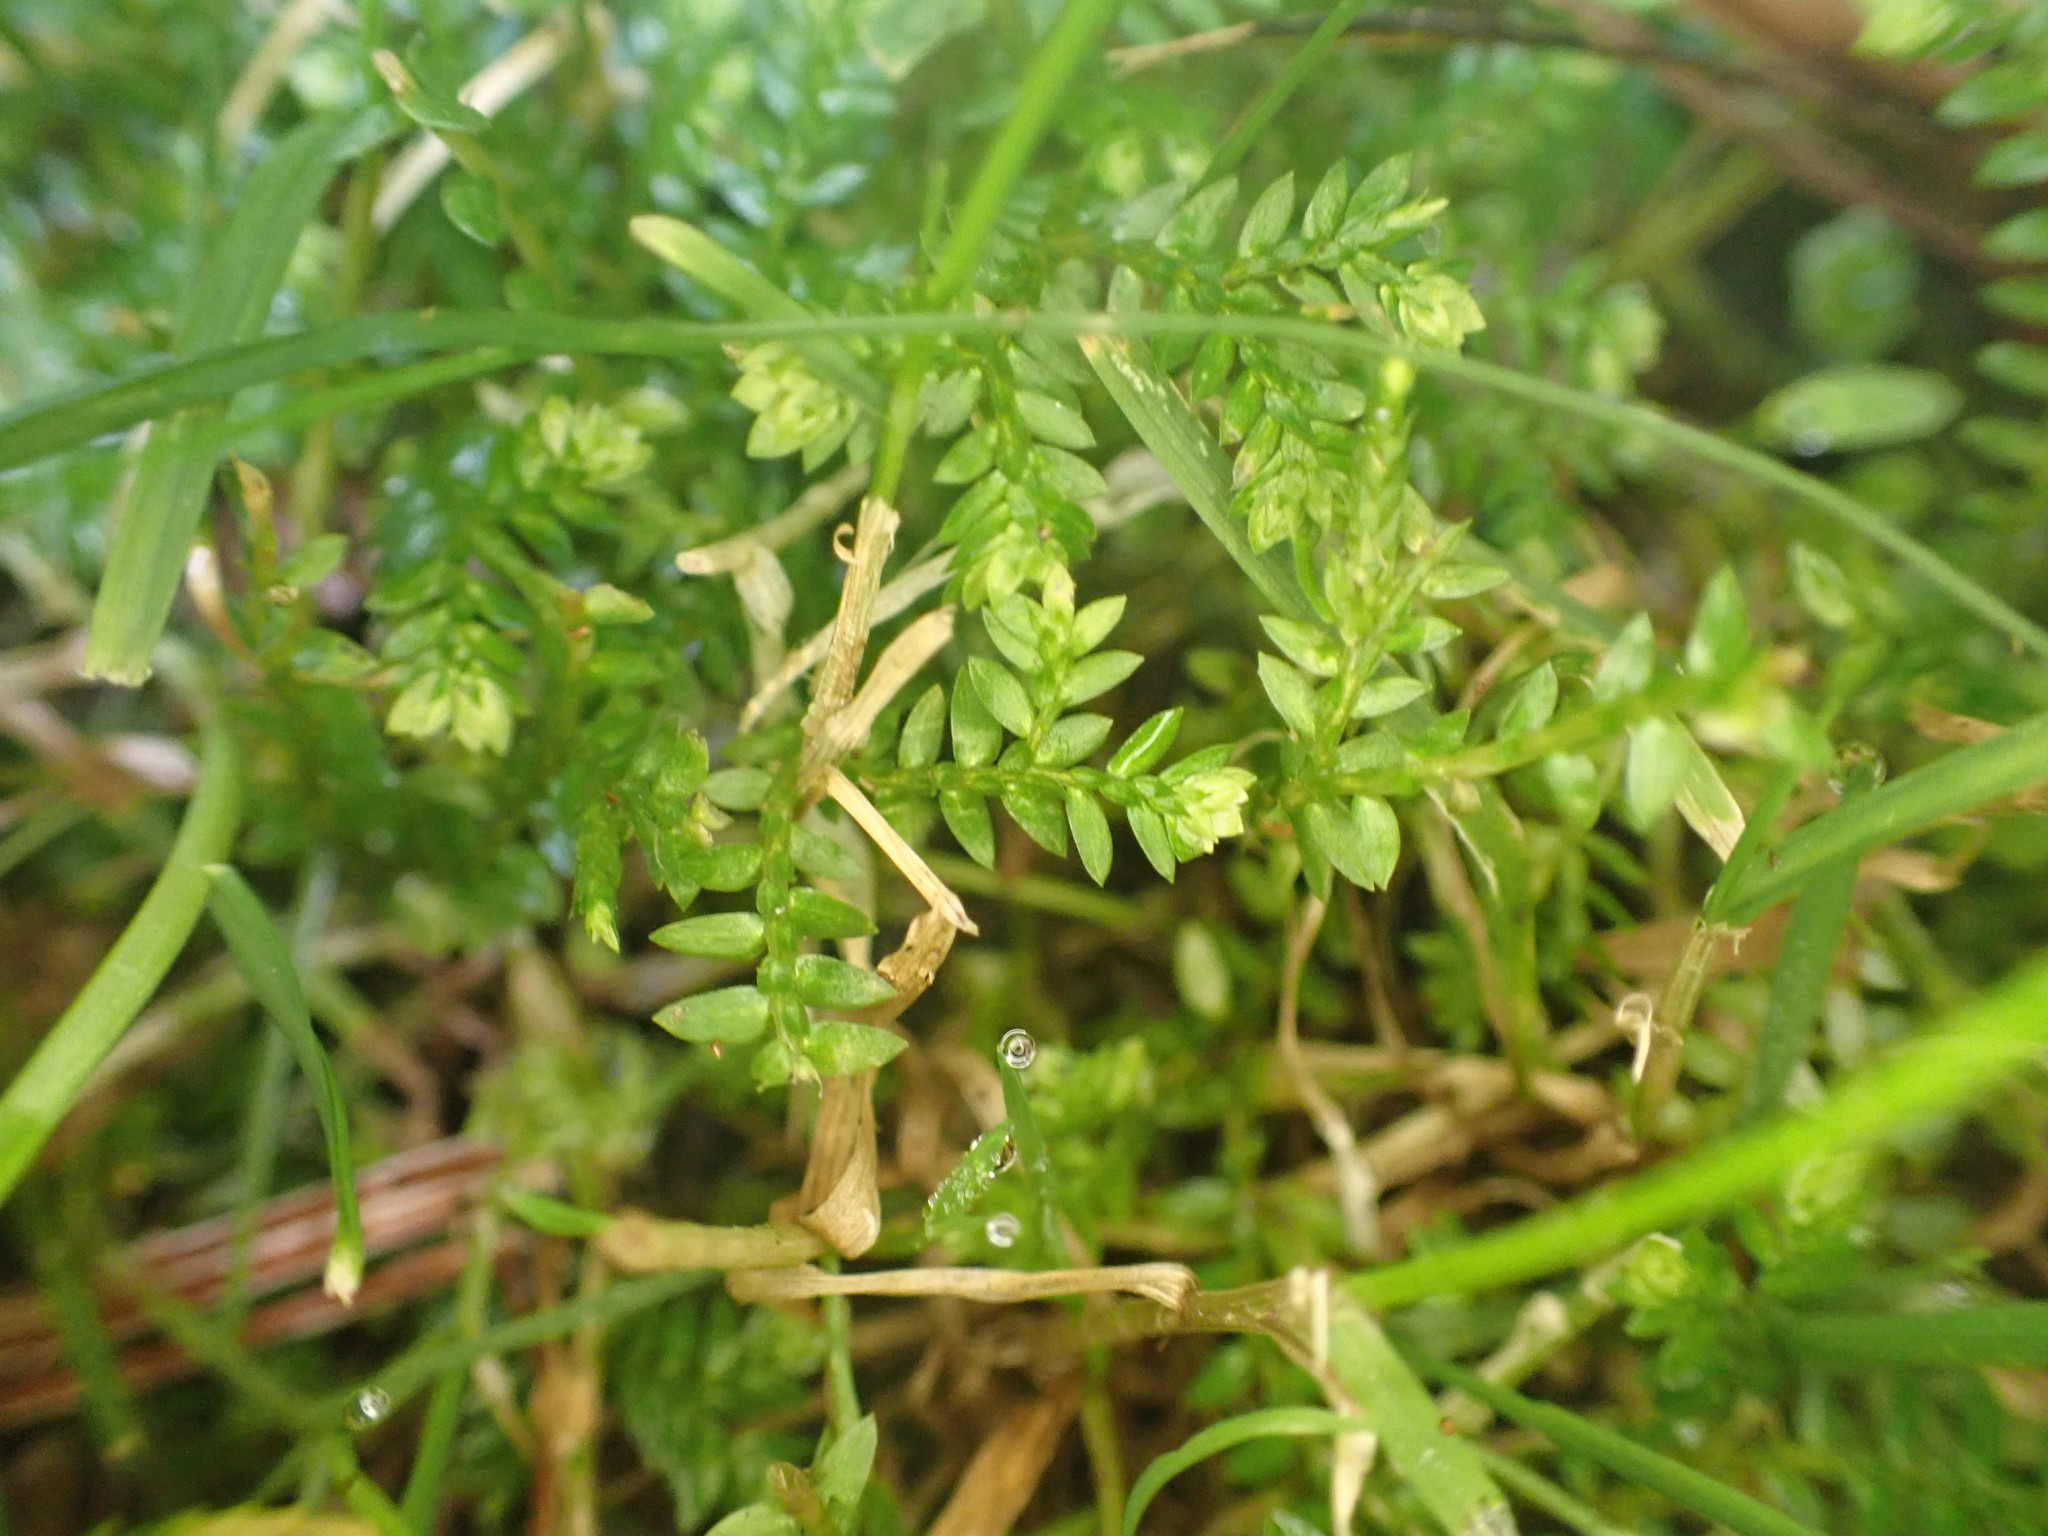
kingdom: Plantae
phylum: Tracheophyta
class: Lycopodiopsida
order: Selaginellales
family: Selaginellaceae
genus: Selaginella
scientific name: Selaginella kraussiana
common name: Krauss' spikemoss
